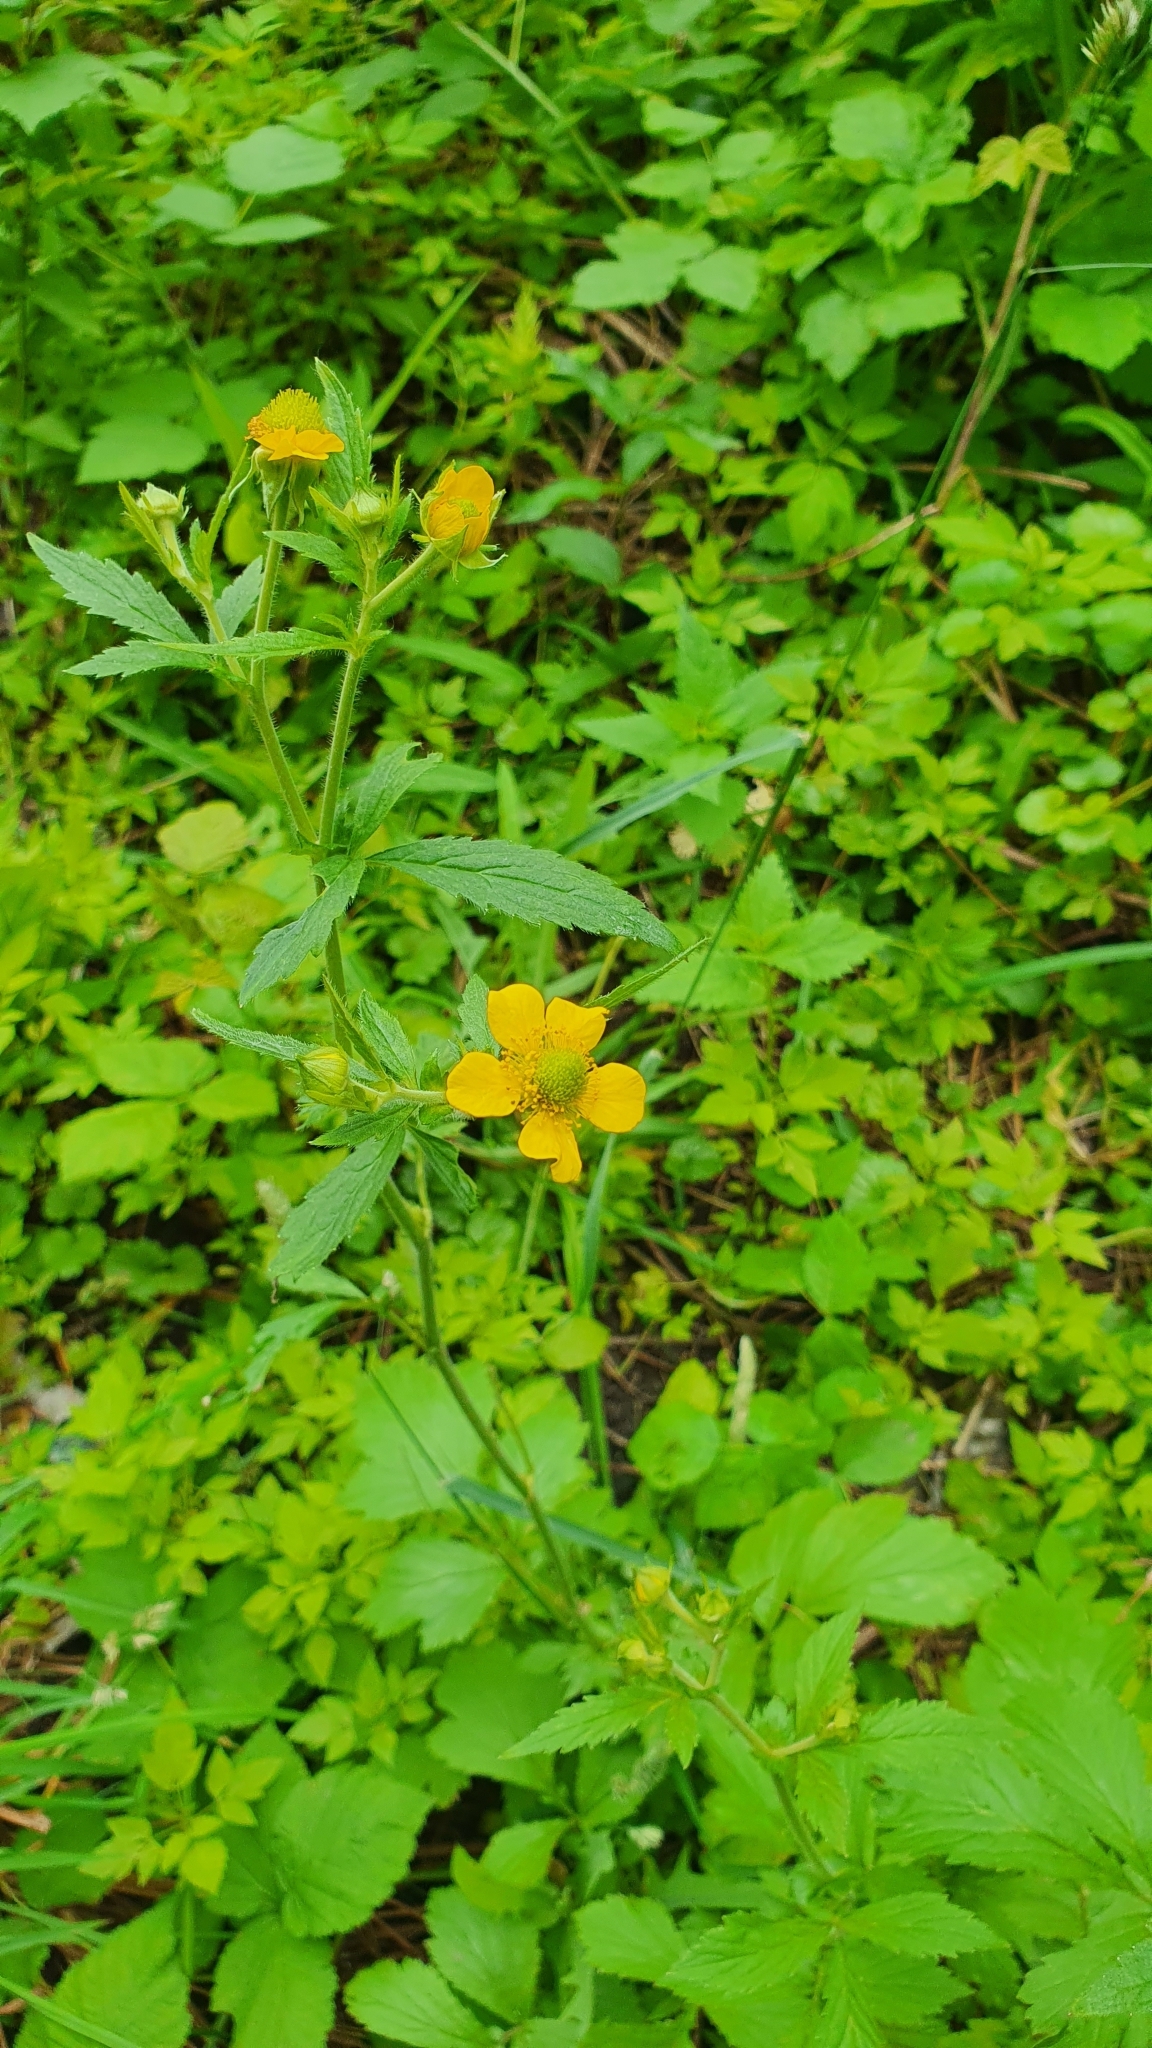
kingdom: Plantae
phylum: Tracheophyta
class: Magnoliopsida
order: Rosales
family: Rosaceae
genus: Geum
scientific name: Geum aleppicum
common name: Yellow avens
